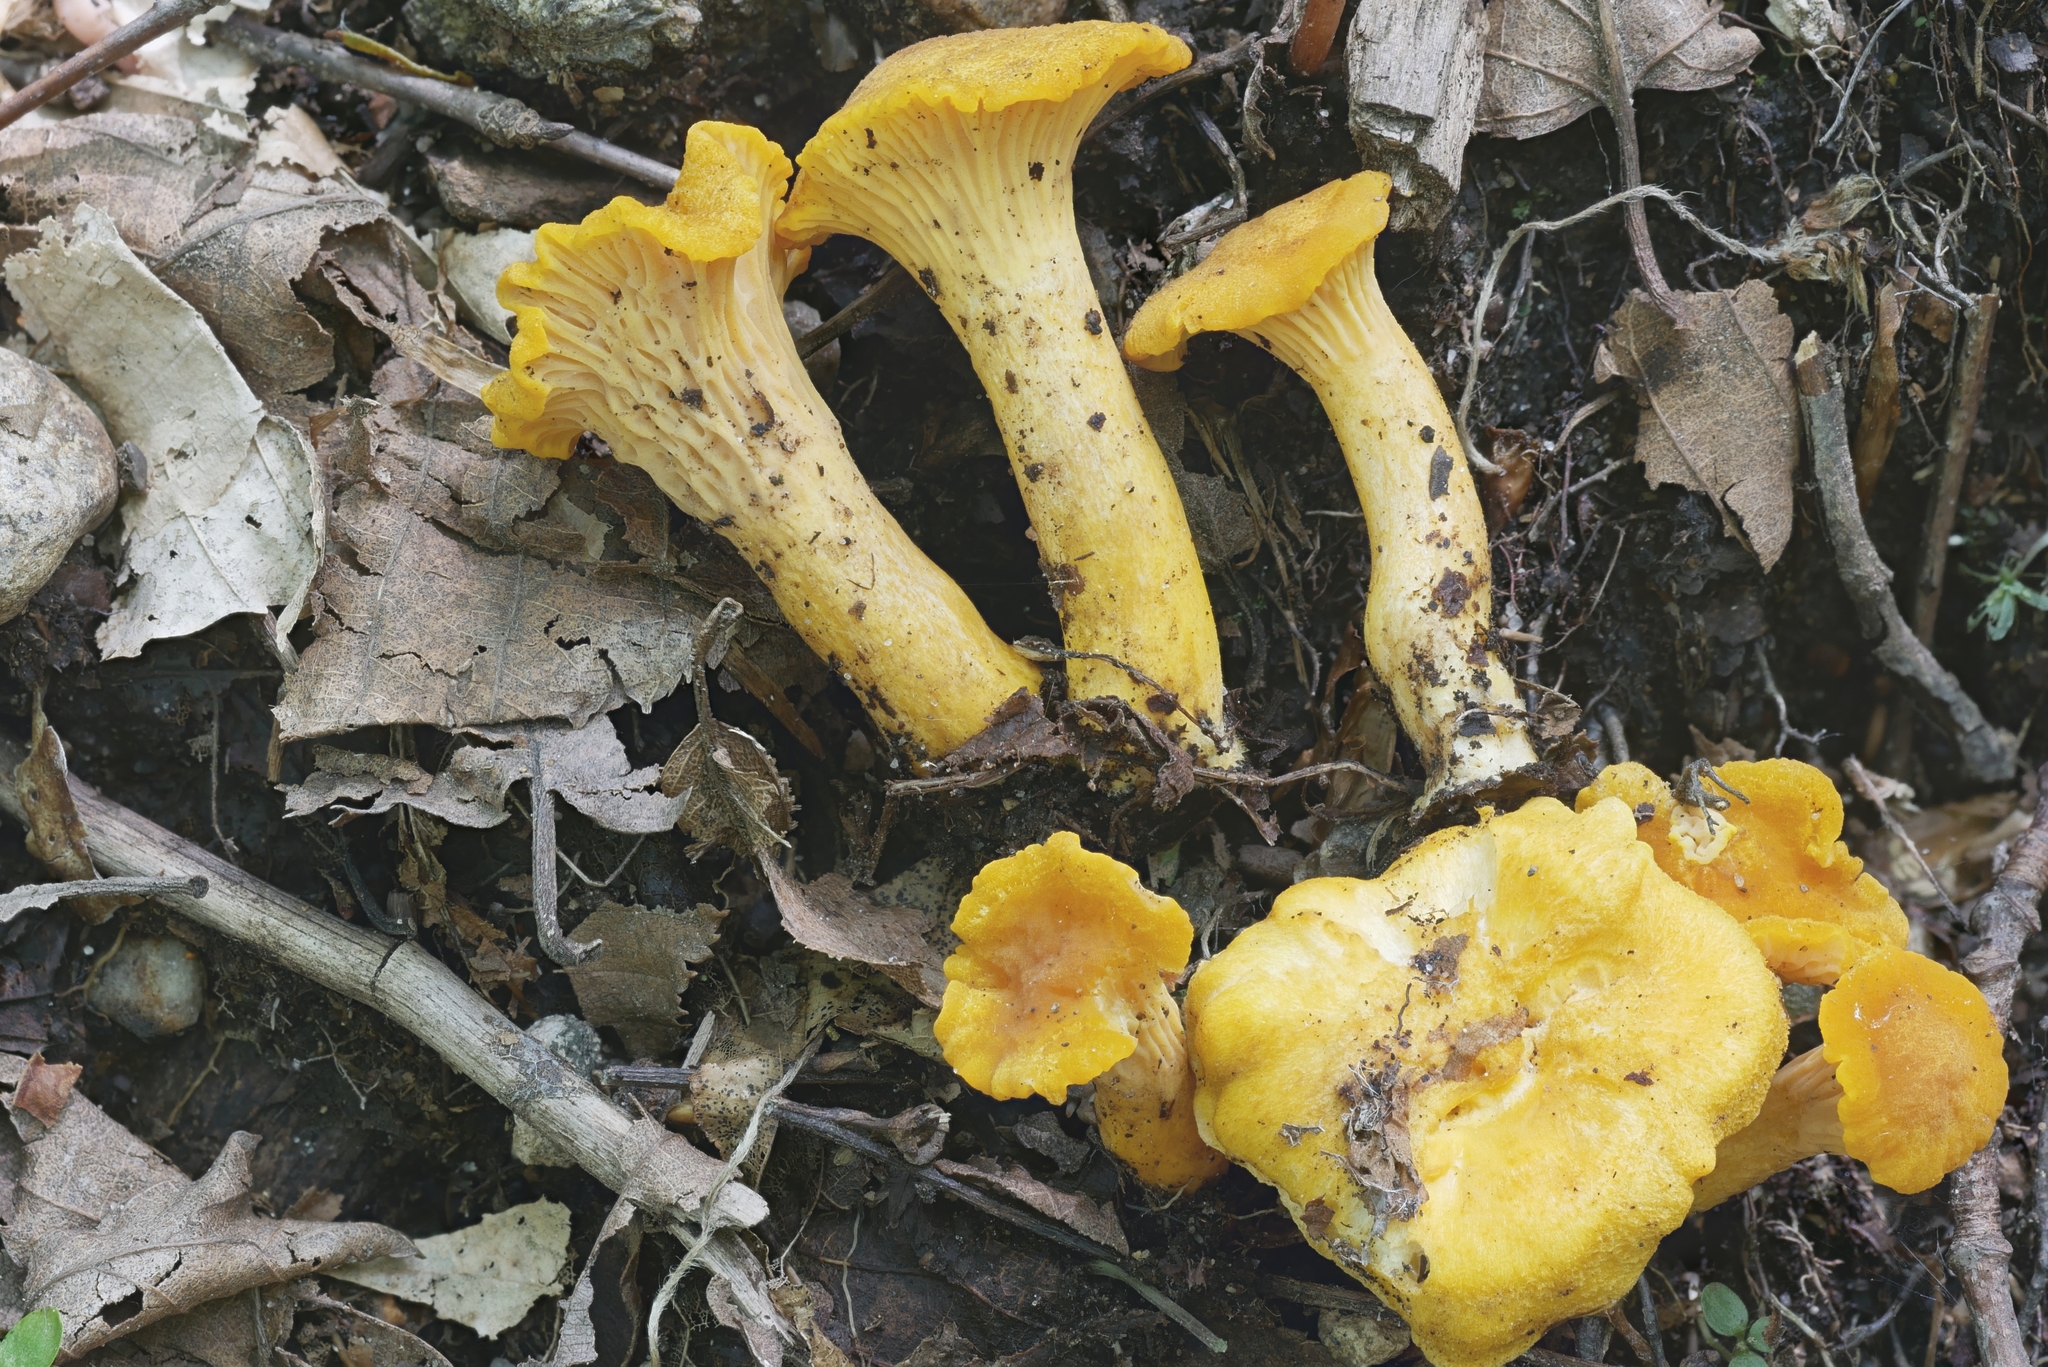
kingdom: Fungi
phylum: Basidiomycota
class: Agaricomycetes
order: Cantharellales
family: Hydnaceae
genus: Cantharellus
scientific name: Cantharellus amethysteus
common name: Amethyst chanterelle
